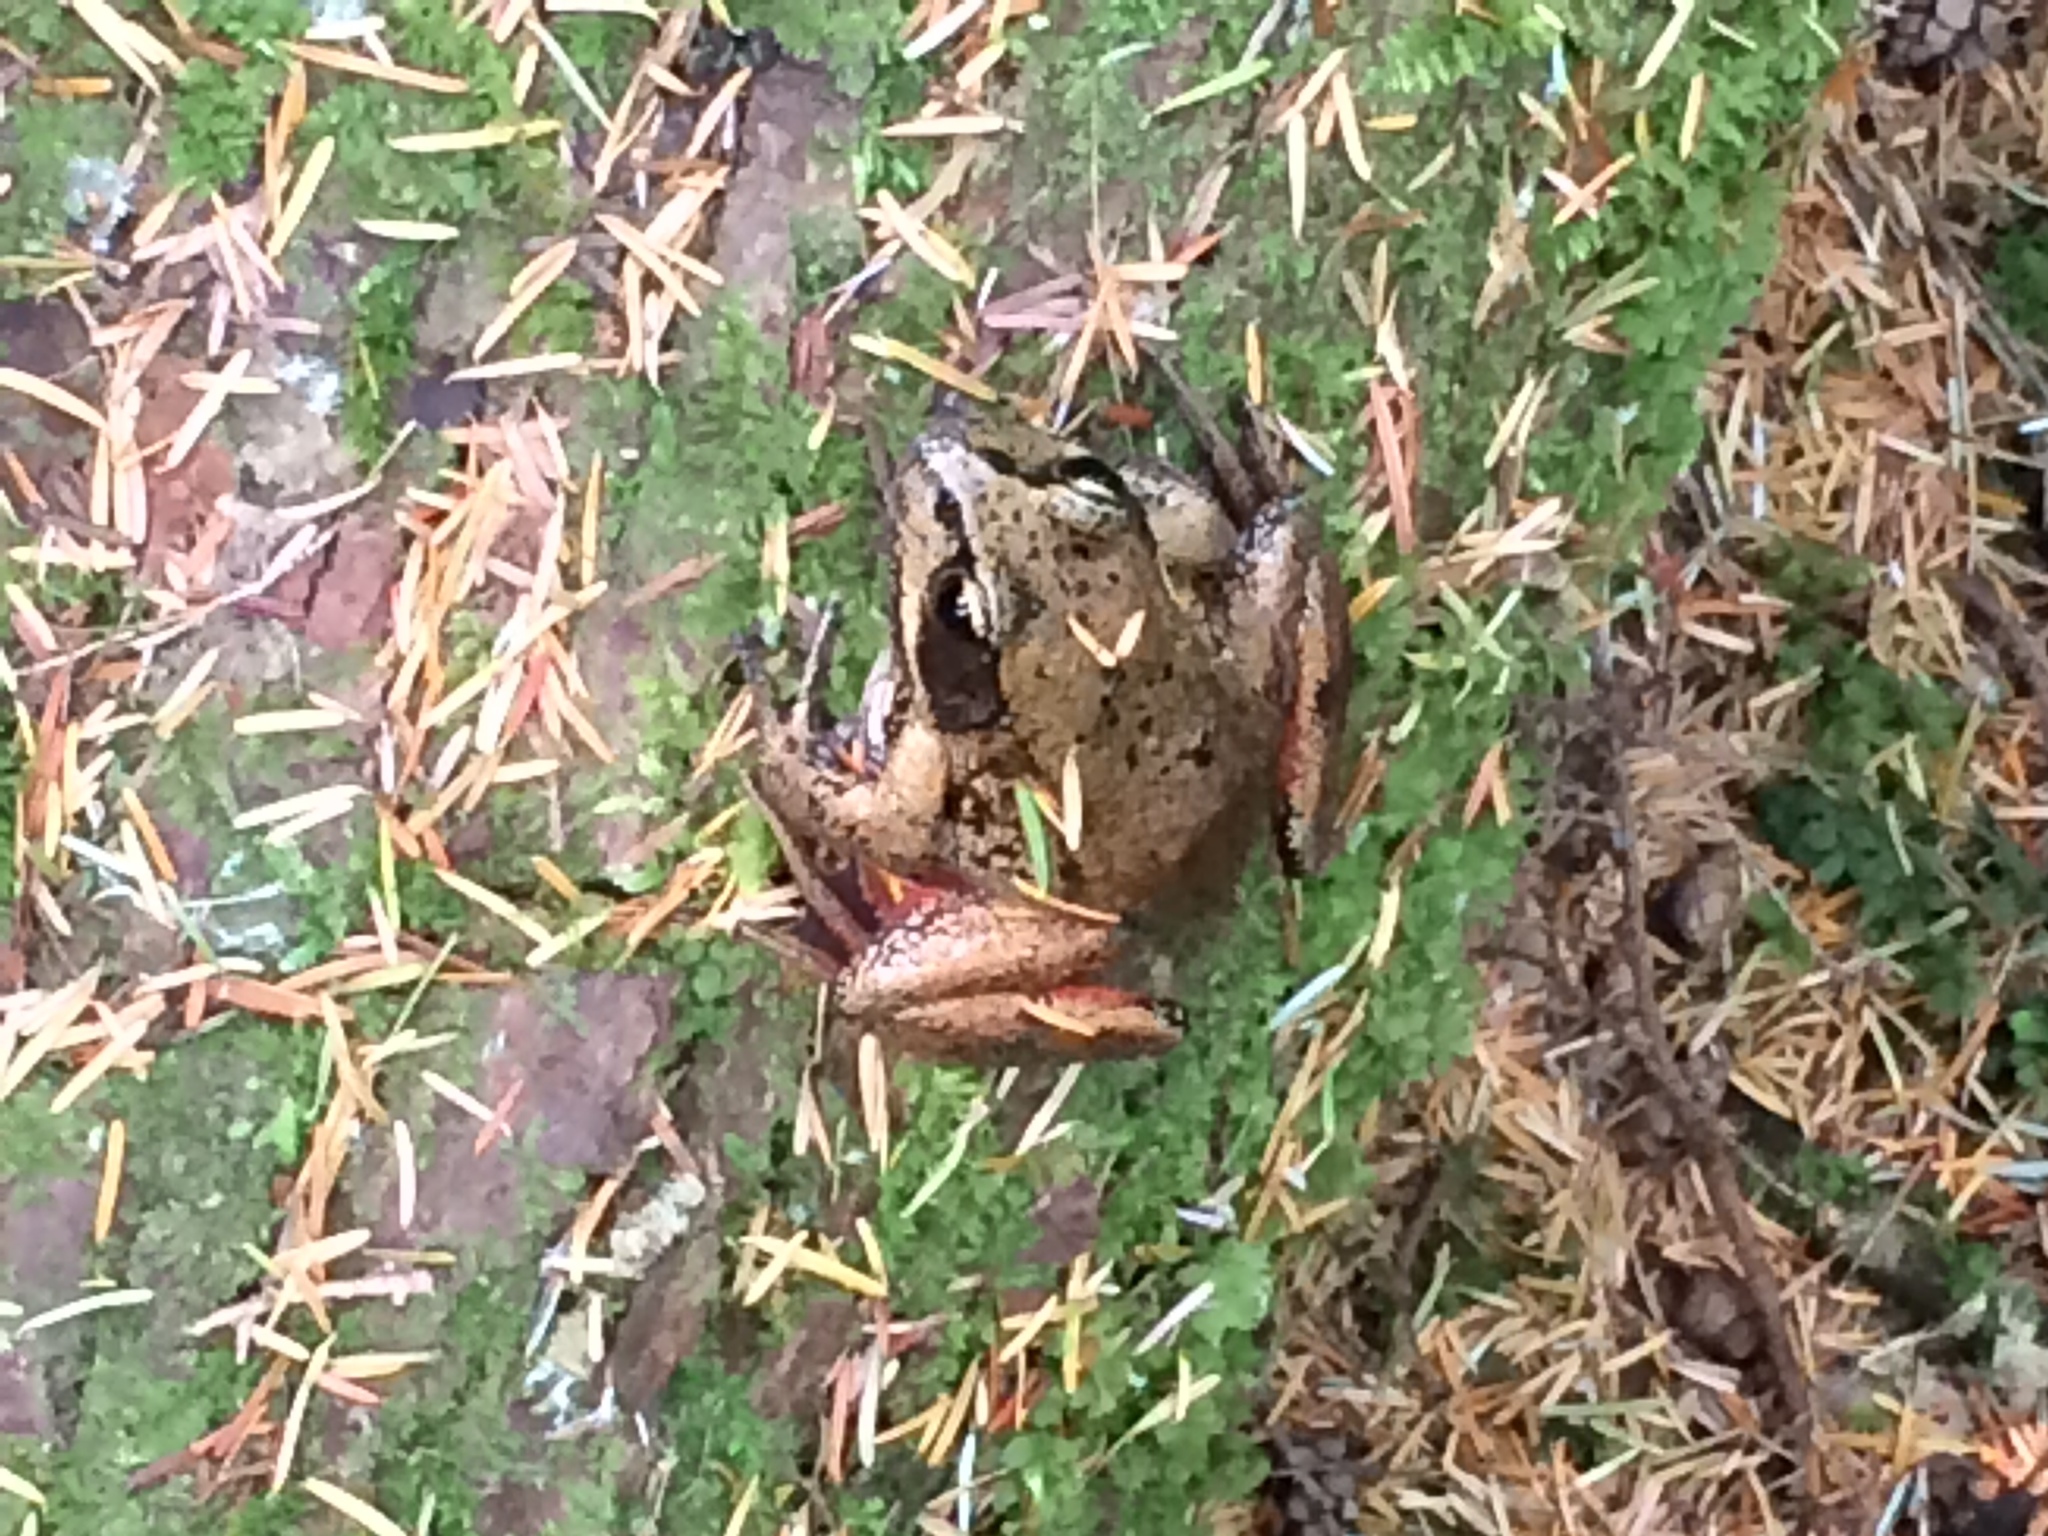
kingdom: Animalia
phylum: Chordata
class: Amphibia
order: Anura
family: Ranidae
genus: Rana
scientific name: Rana aurora
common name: Red-legged frog
